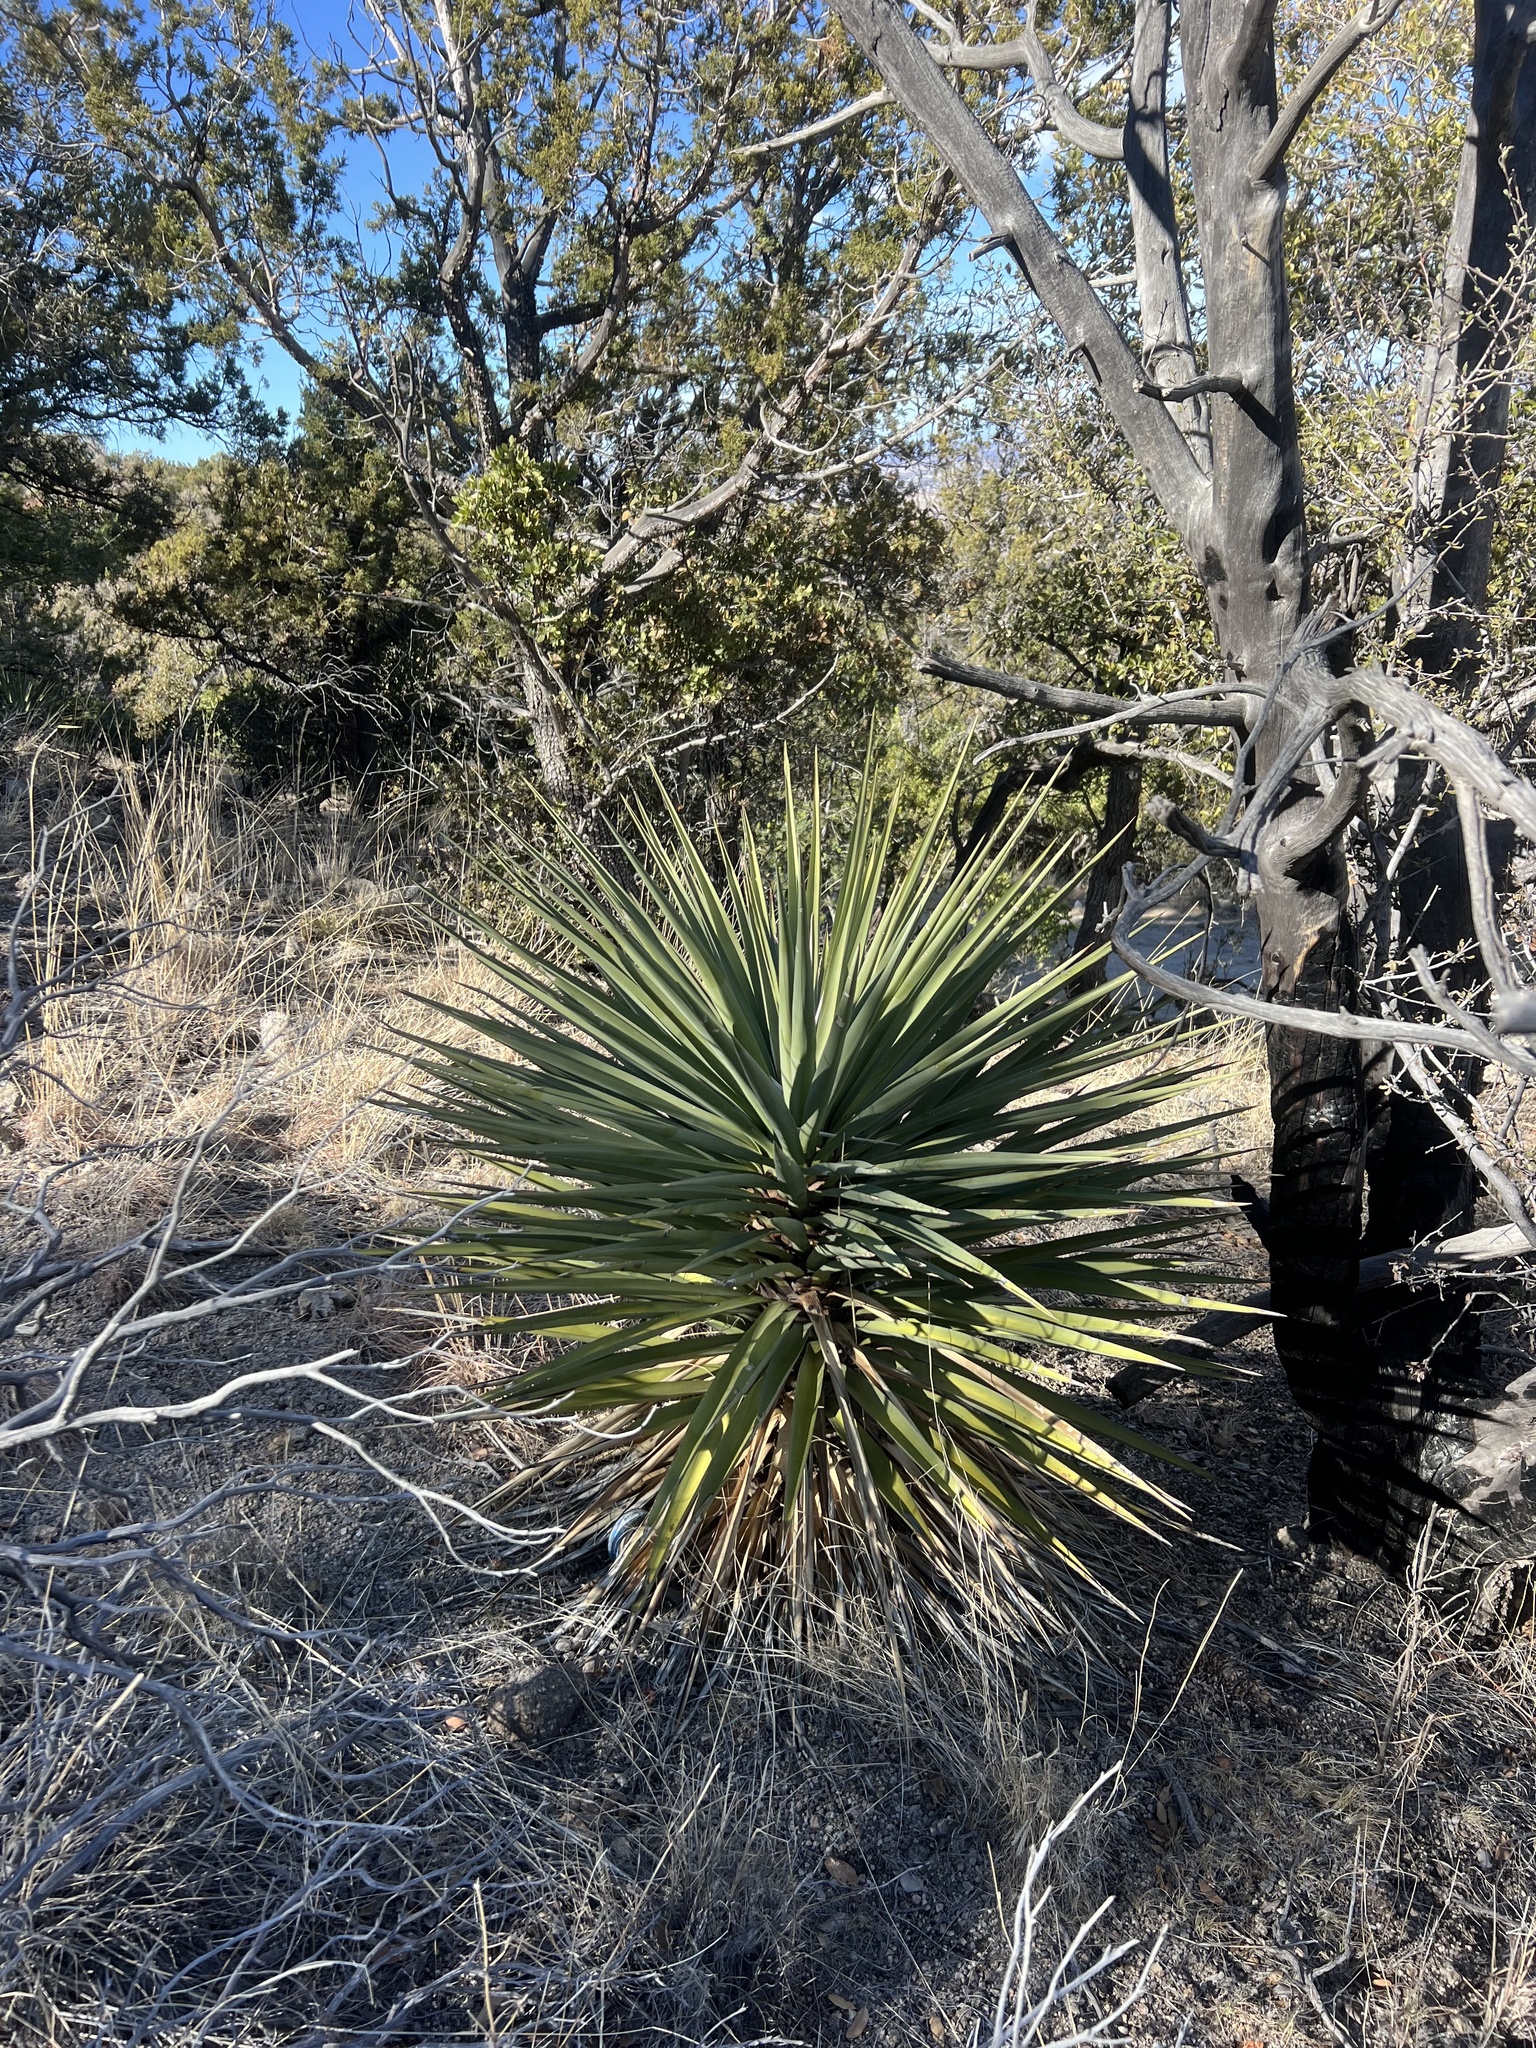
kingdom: Plantae
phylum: Tracheophyta
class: Liliopsida
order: Asparagales
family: Asparagaceae
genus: Yucca
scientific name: Yucca madrensis
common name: Hoary yucca
